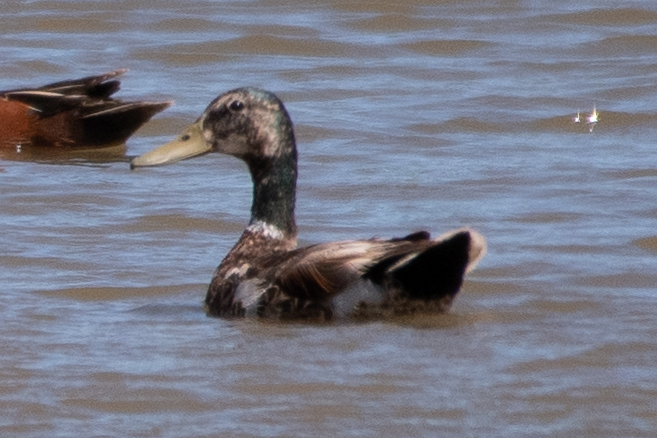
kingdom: Animalia
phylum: Chordata
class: Aves
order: Anseriformes
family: Anatidae
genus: Anas
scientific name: Anas platyrhynchos
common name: Mallard
